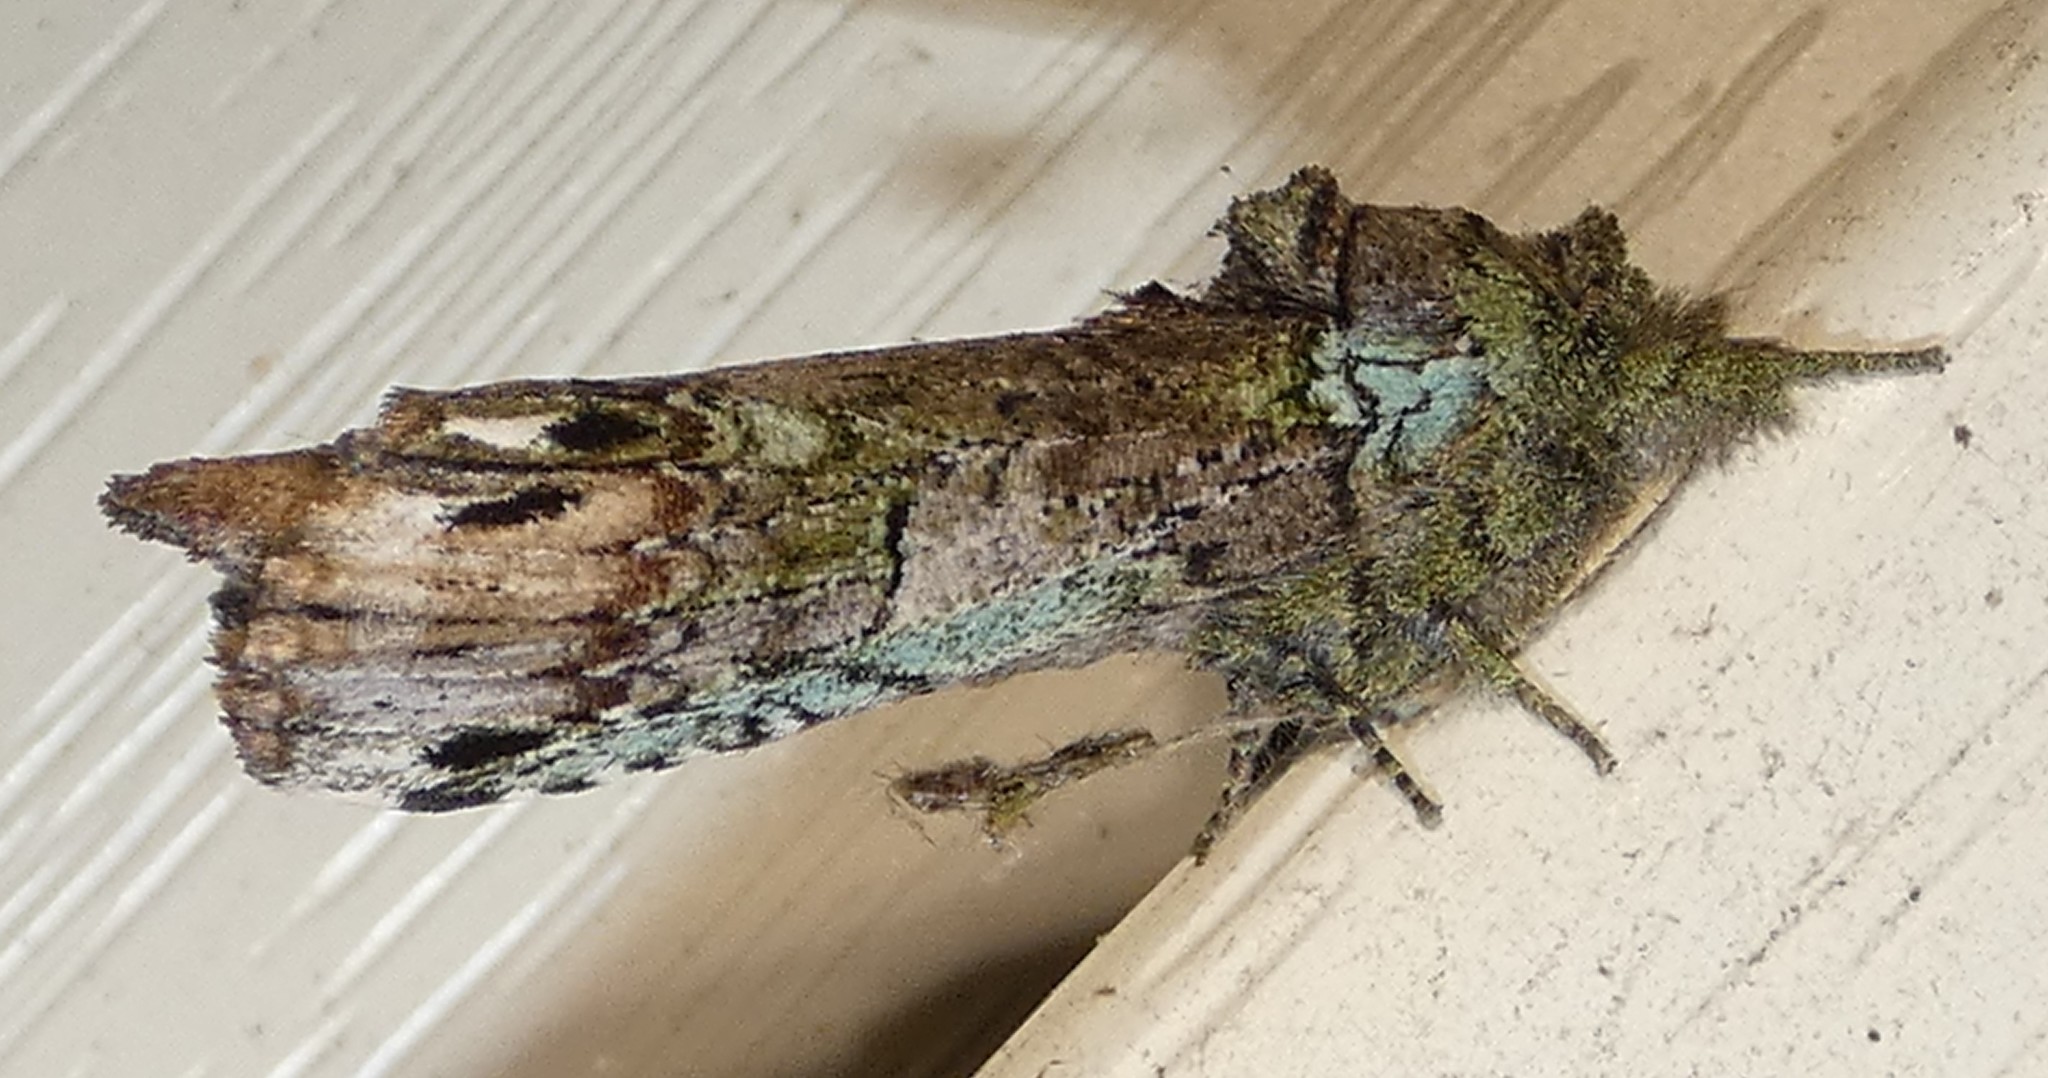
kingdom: Animalia
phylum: Arthropoda
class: Insecta
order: Lepidoptera
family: Notodontidae
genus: Schizura
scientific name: Schizura
